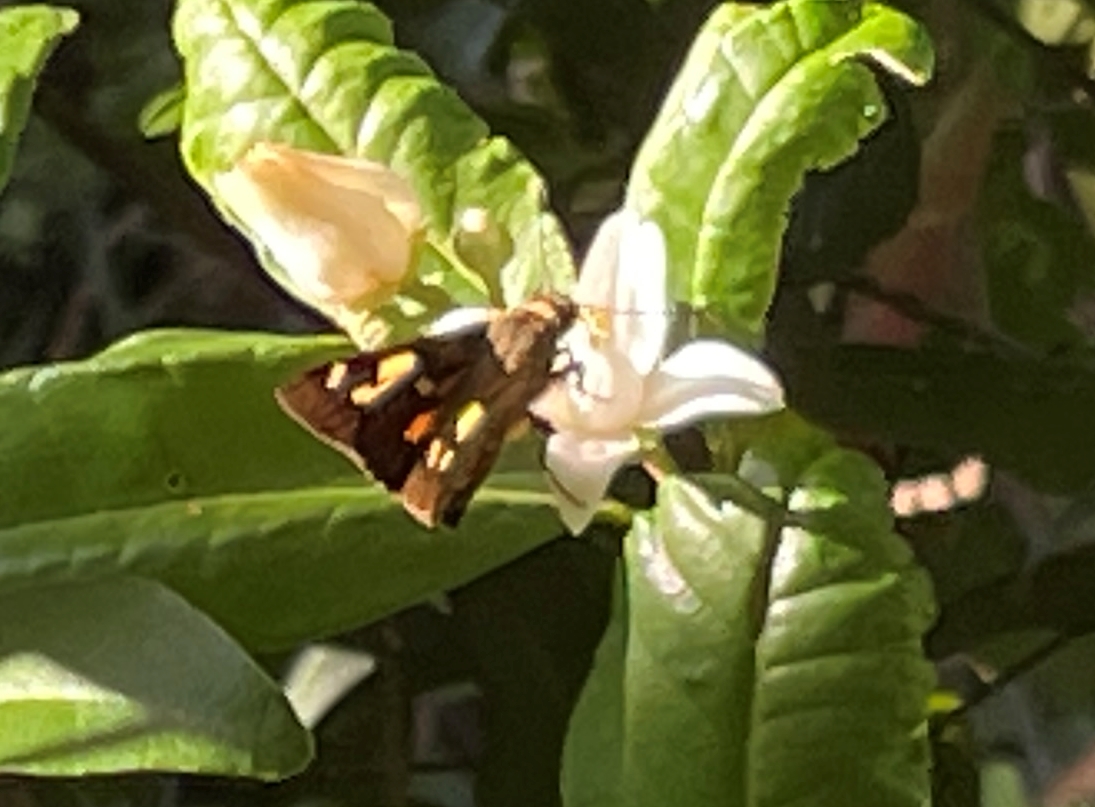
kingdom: Animalia
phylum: Arthropoda
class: Insecta
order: Lepidoptera
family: Hesperiidae
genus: Trapezites
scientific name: Trapezites symmomus
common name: Splendid ochre
